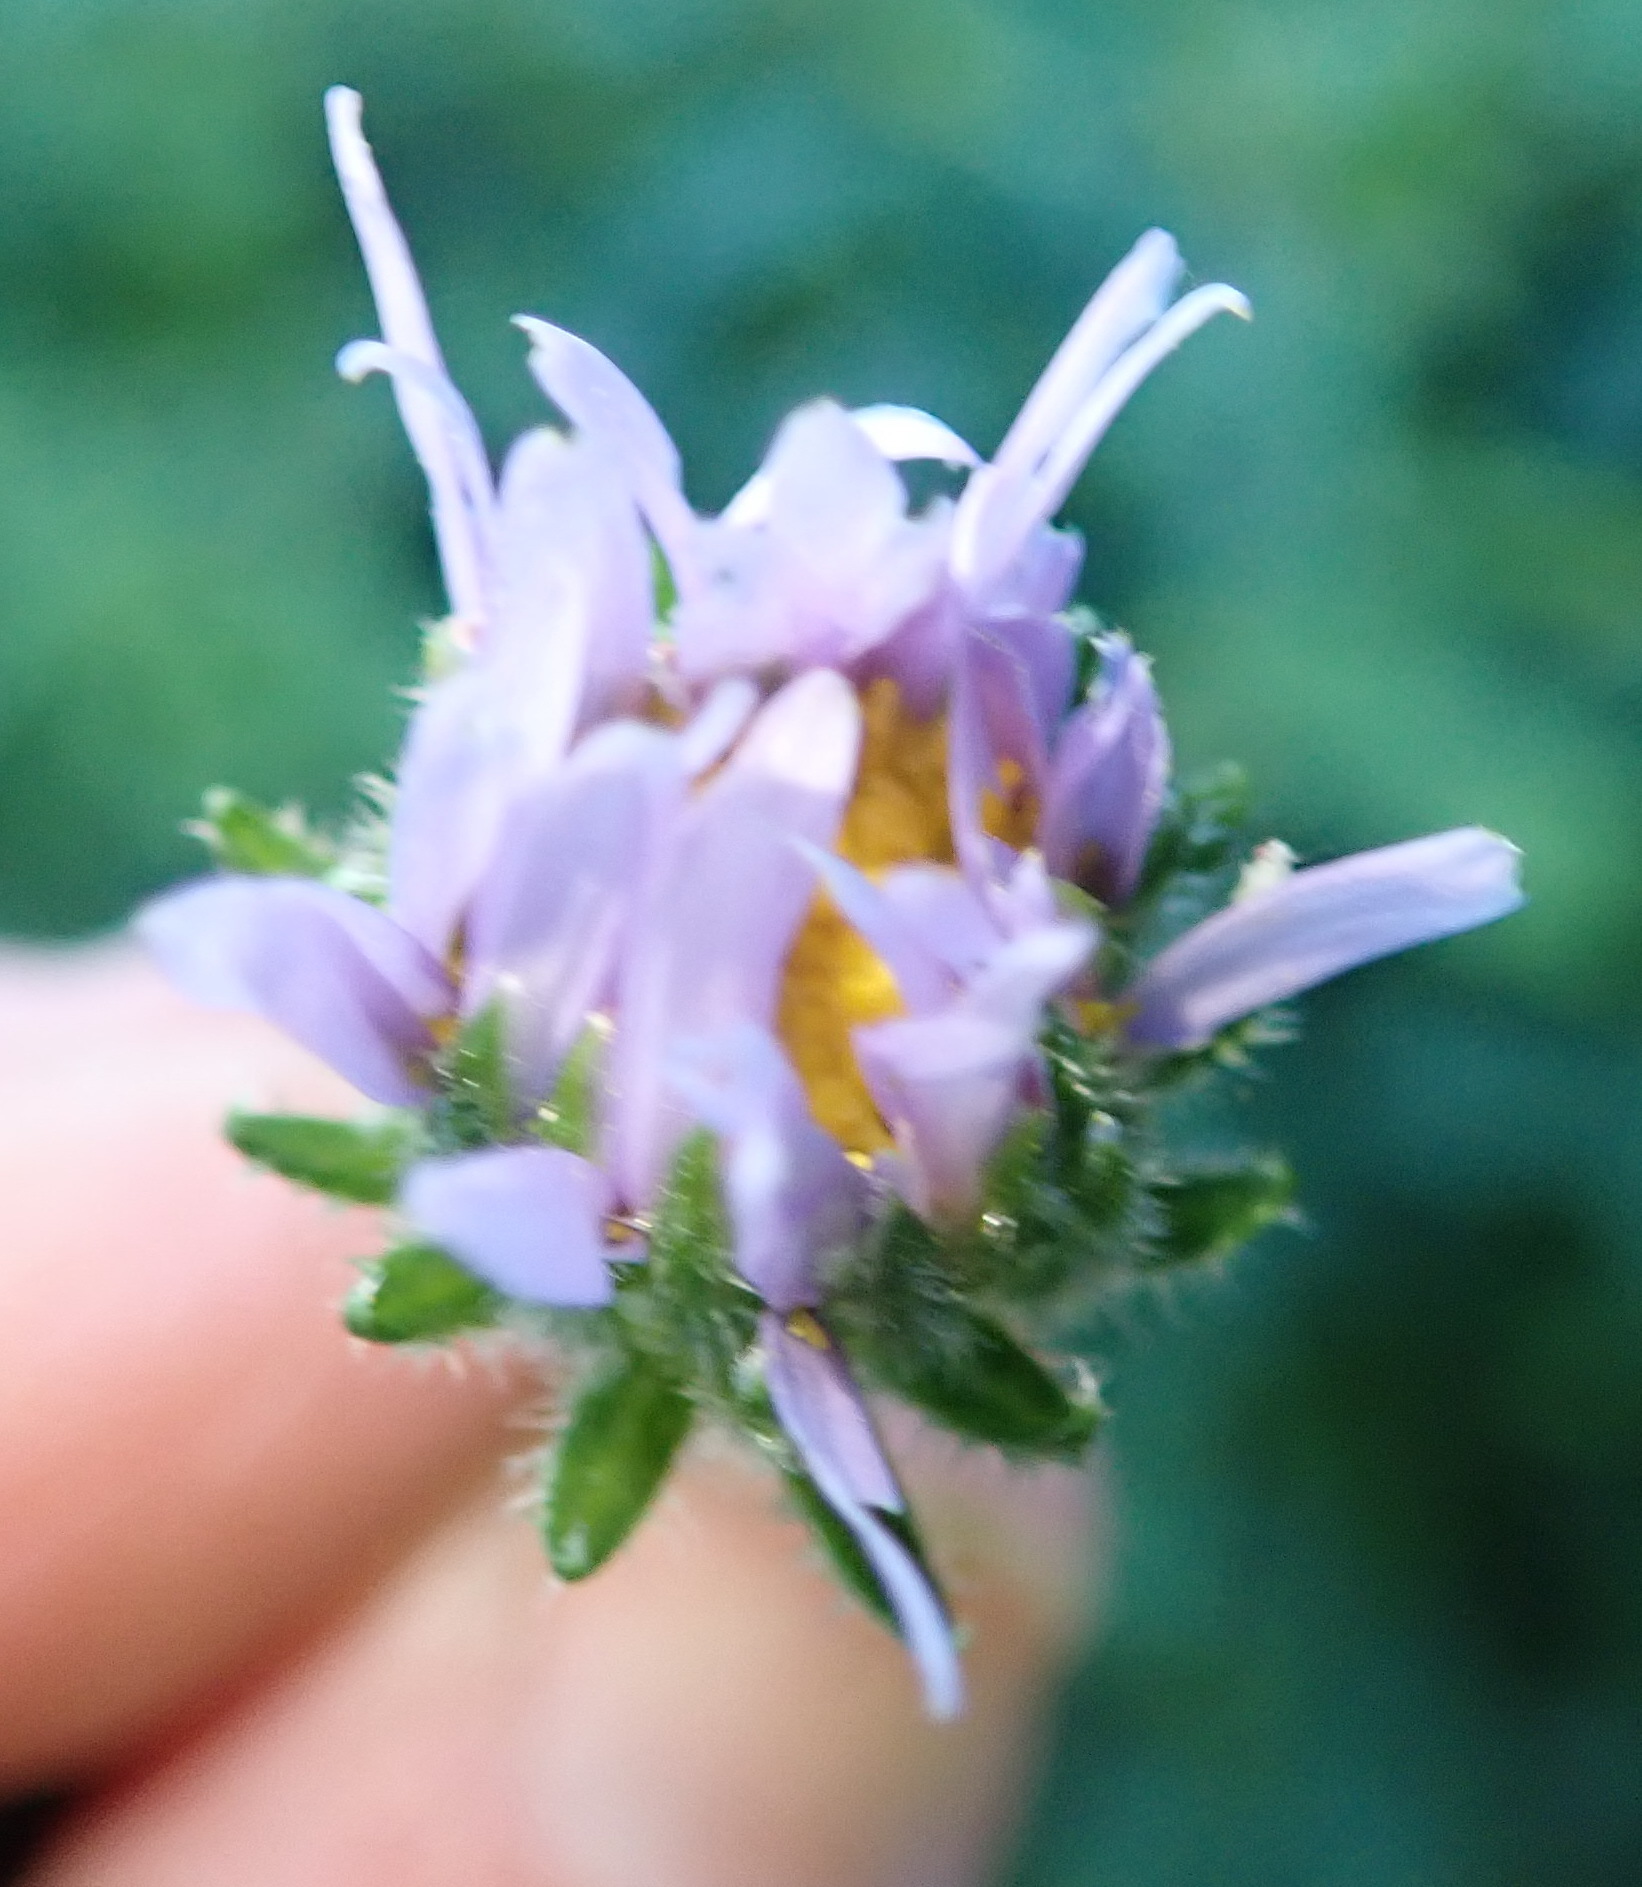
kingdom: Plantae
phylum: Tracheophyta
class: Magnoliopsida
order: Asterales
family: Asteraceae
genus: Felicia
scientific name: Felicia echinata
